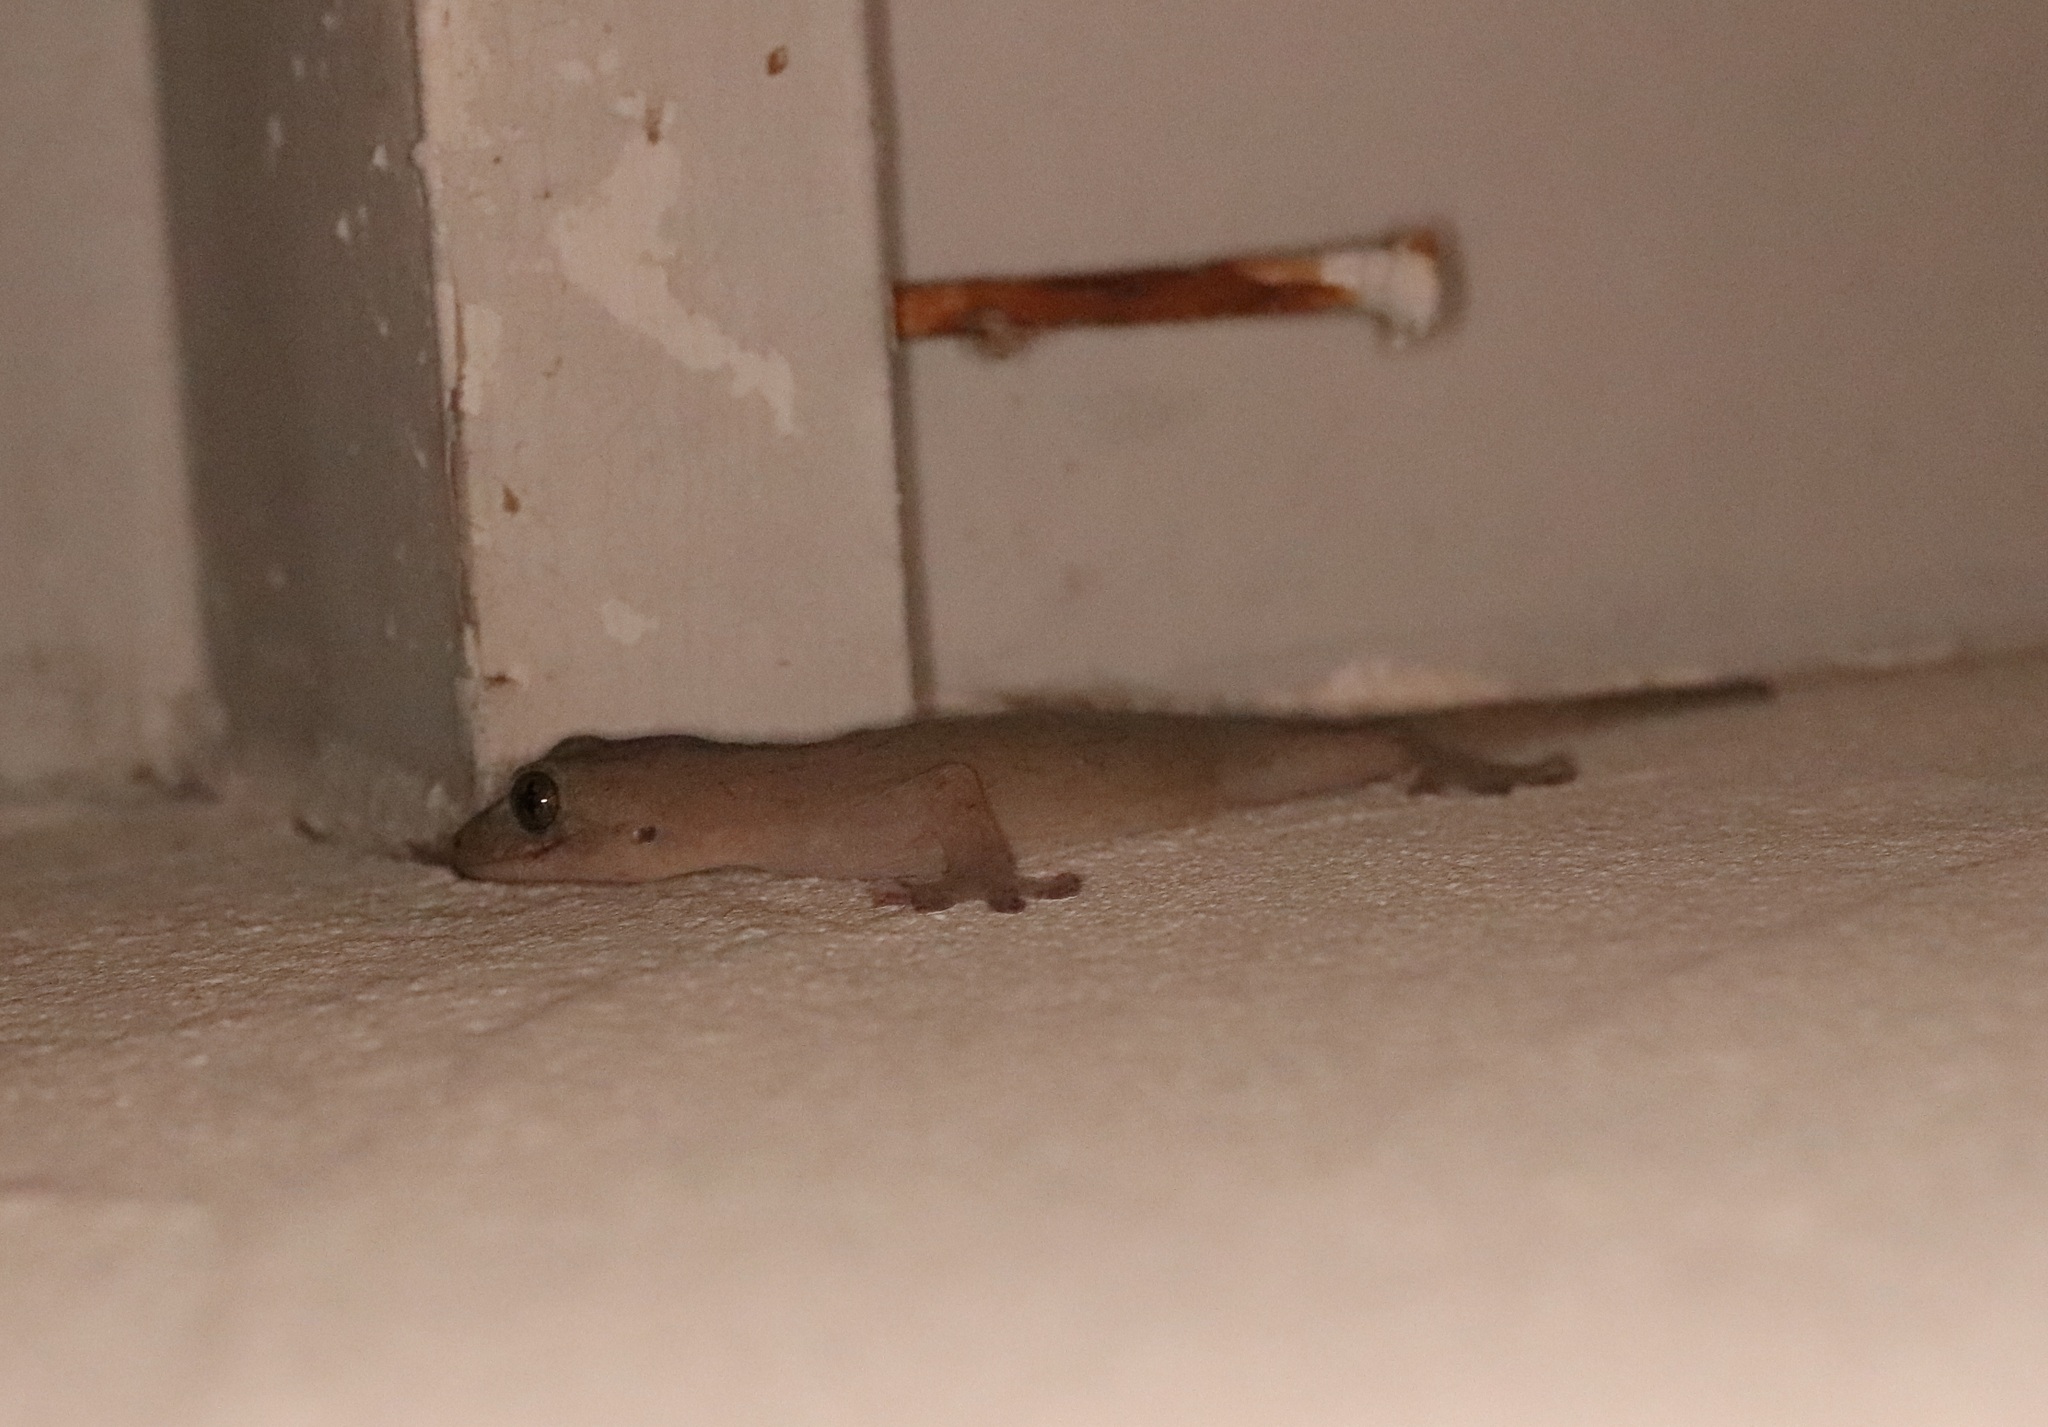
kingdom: Animalia
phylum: Chordata
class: Squamata
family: Gekkonidae
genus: Gekko
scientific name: Gekko japonicus
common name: Schlegel's japanese gecko
